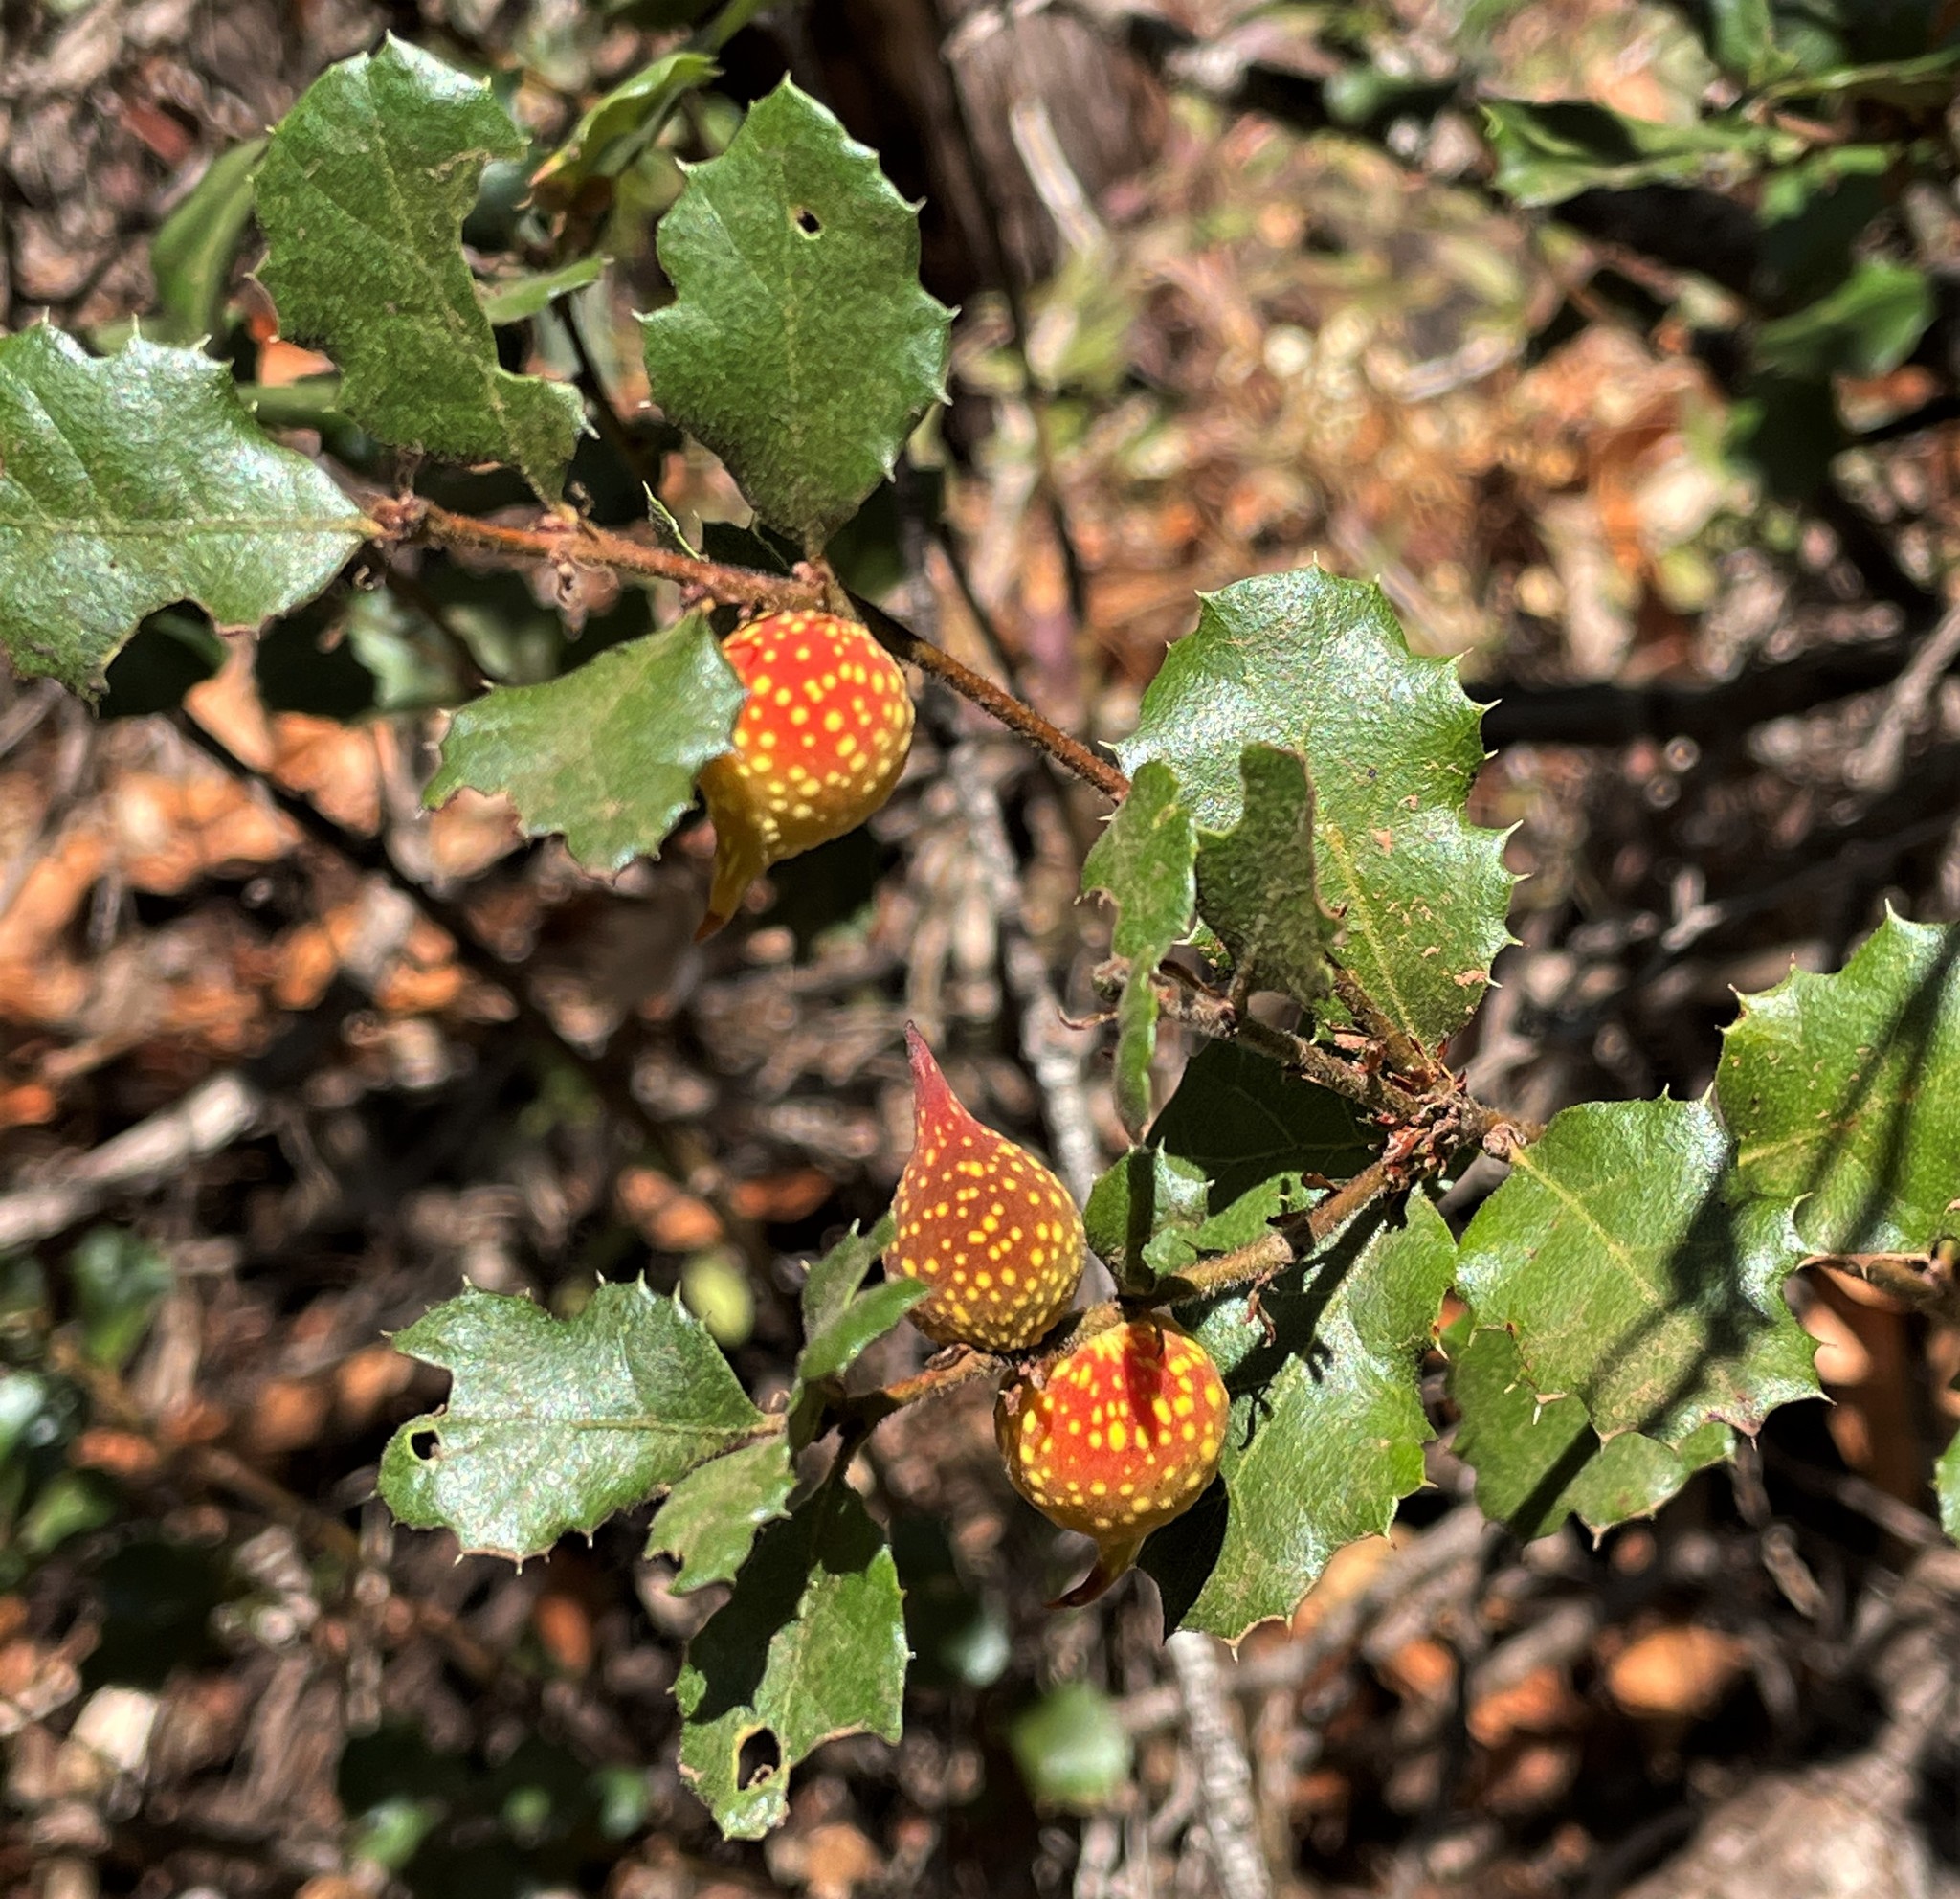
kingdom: Animalia
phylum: Arthropoda
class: Insecta
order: Hymenoptera
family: Cynipidae
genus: Burnettweldia
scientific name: Burnettweldia
